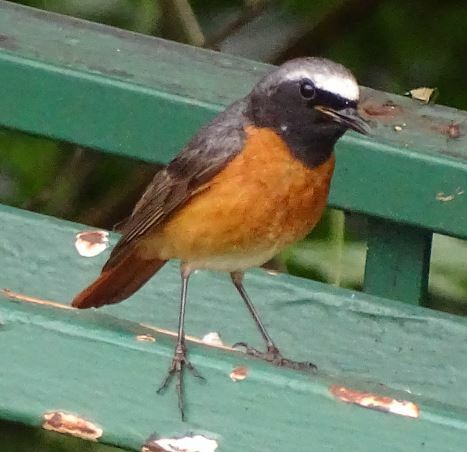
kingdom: Animalia
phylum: Chordata
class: Aves
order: Passeriformes
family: Muscicapidae
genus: Phoenicurus
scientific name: Phoenicurus phoenicurus
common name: Common redstart
